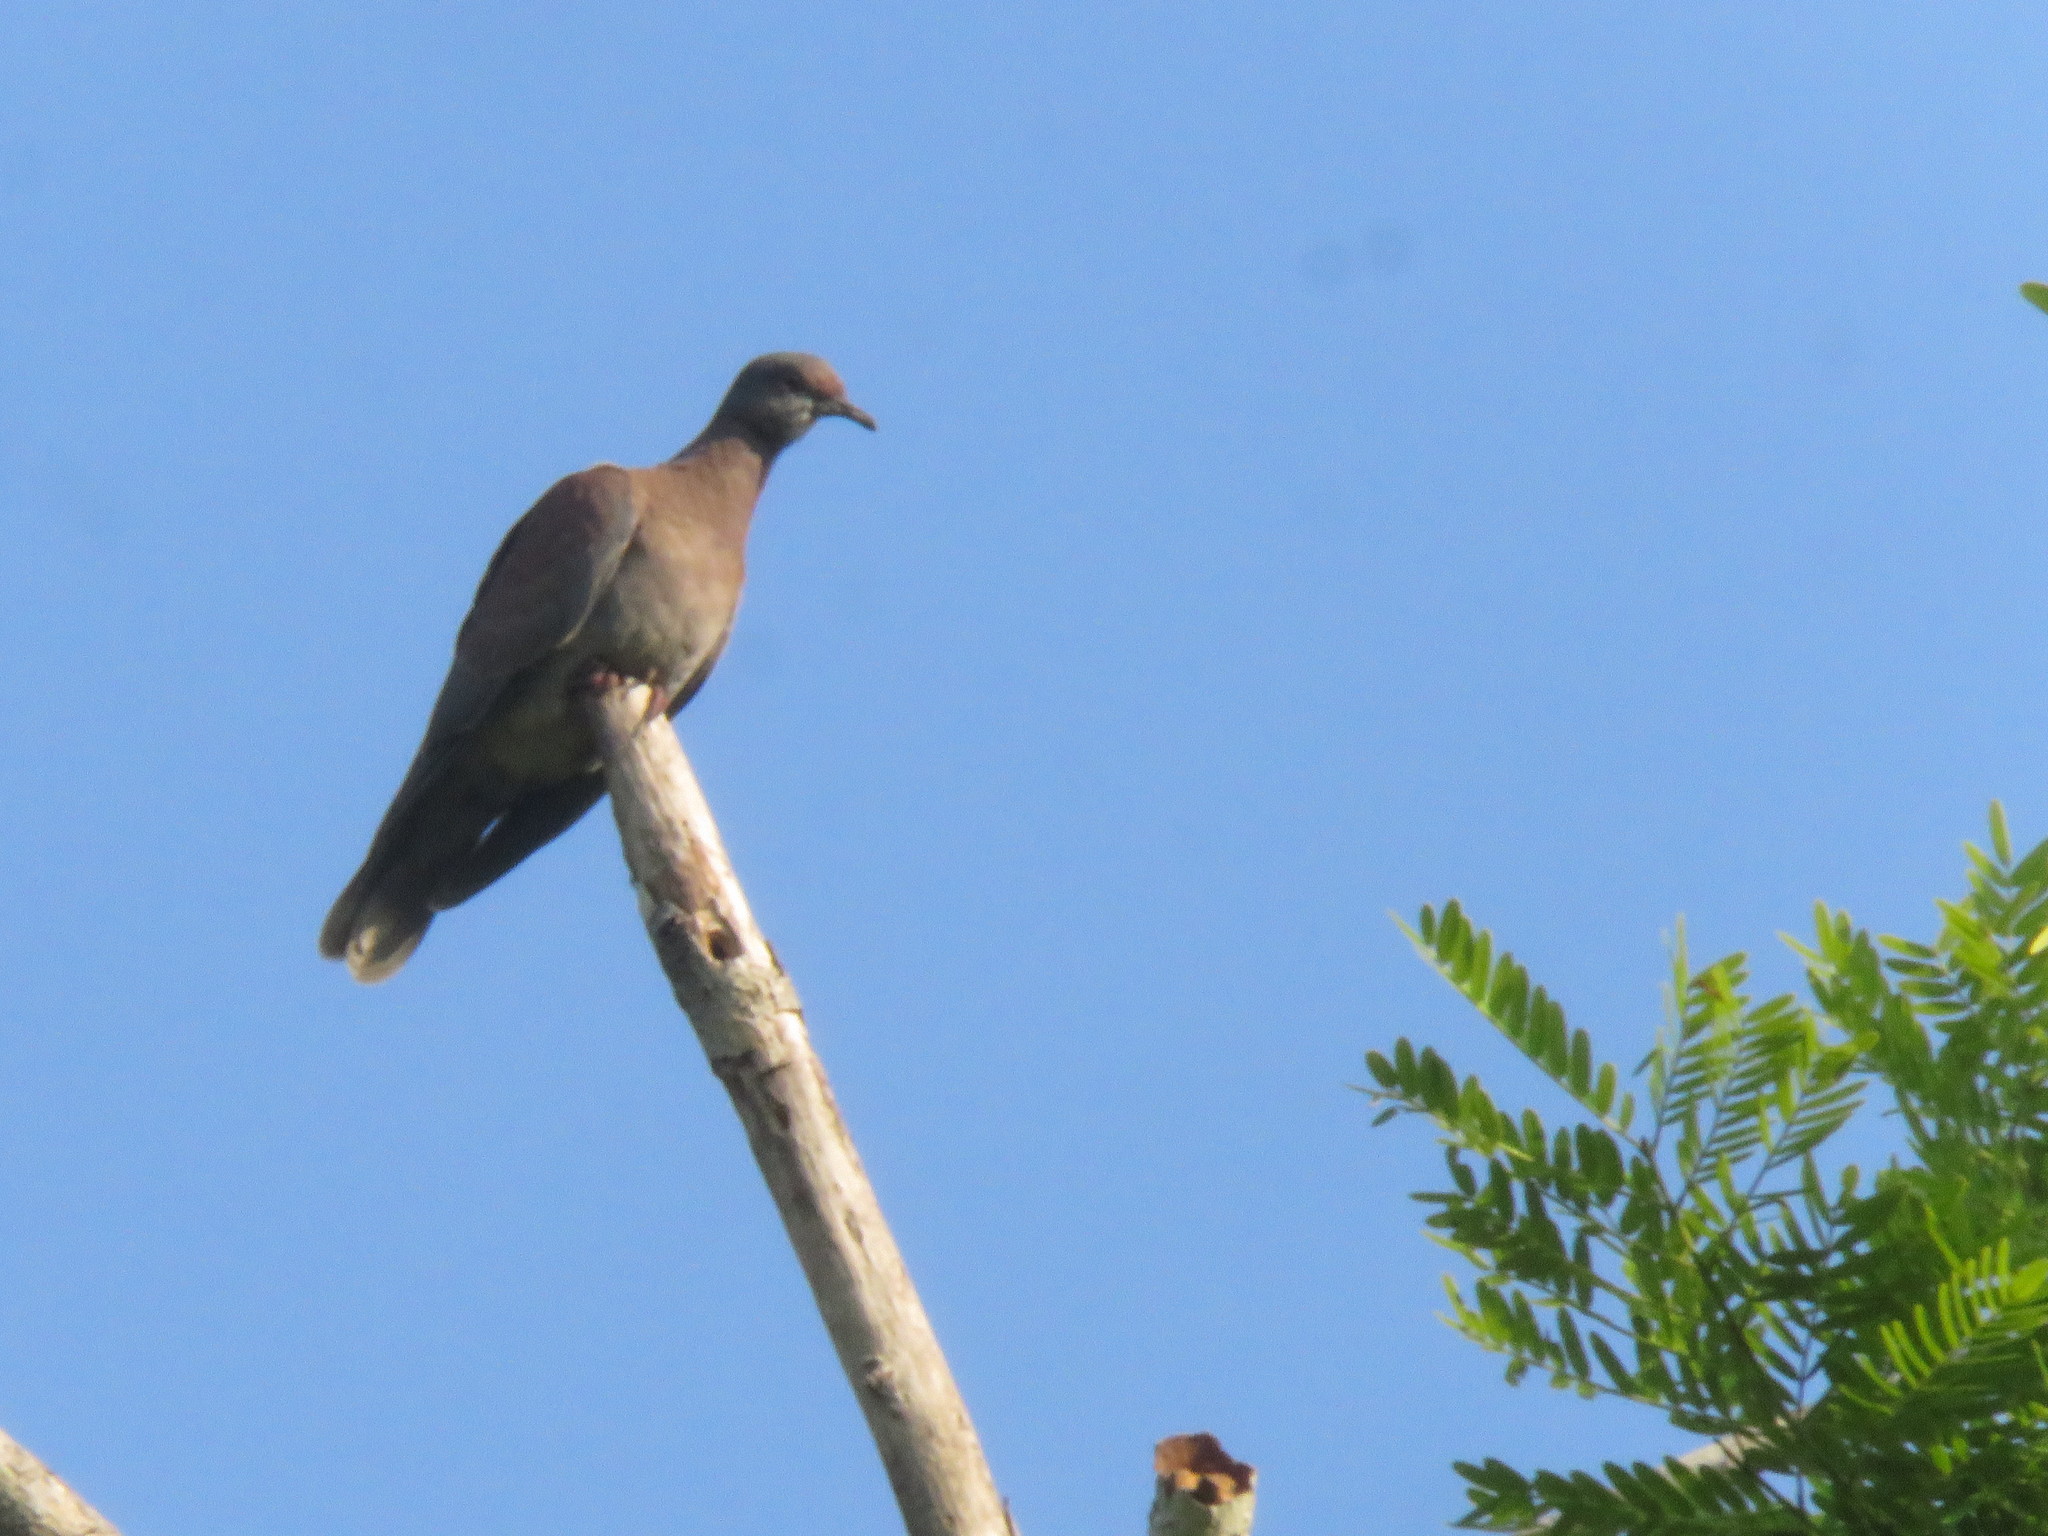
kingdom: Animalia
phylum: Chordata
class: Aves
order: Columbiformes
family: Columbidae
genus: Patagioenas
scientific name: Patagioenas cayennensis
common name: Pale-vented pigeon
